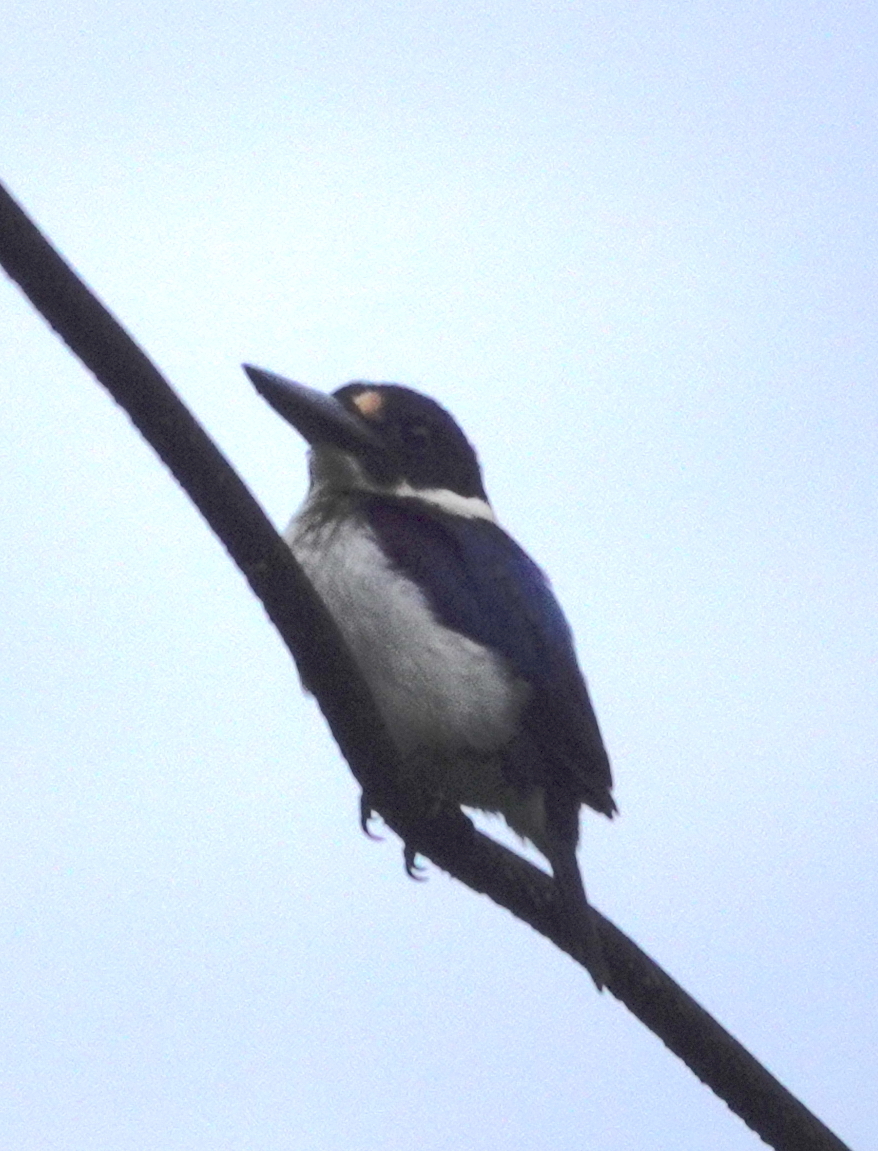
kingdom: Animalia
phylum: Chordata
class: Aves
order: Coraciiformes
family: Alcedinidae
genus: Todiramphus
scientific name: Todiramphus diops
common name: Blue-and-white kingfisher
